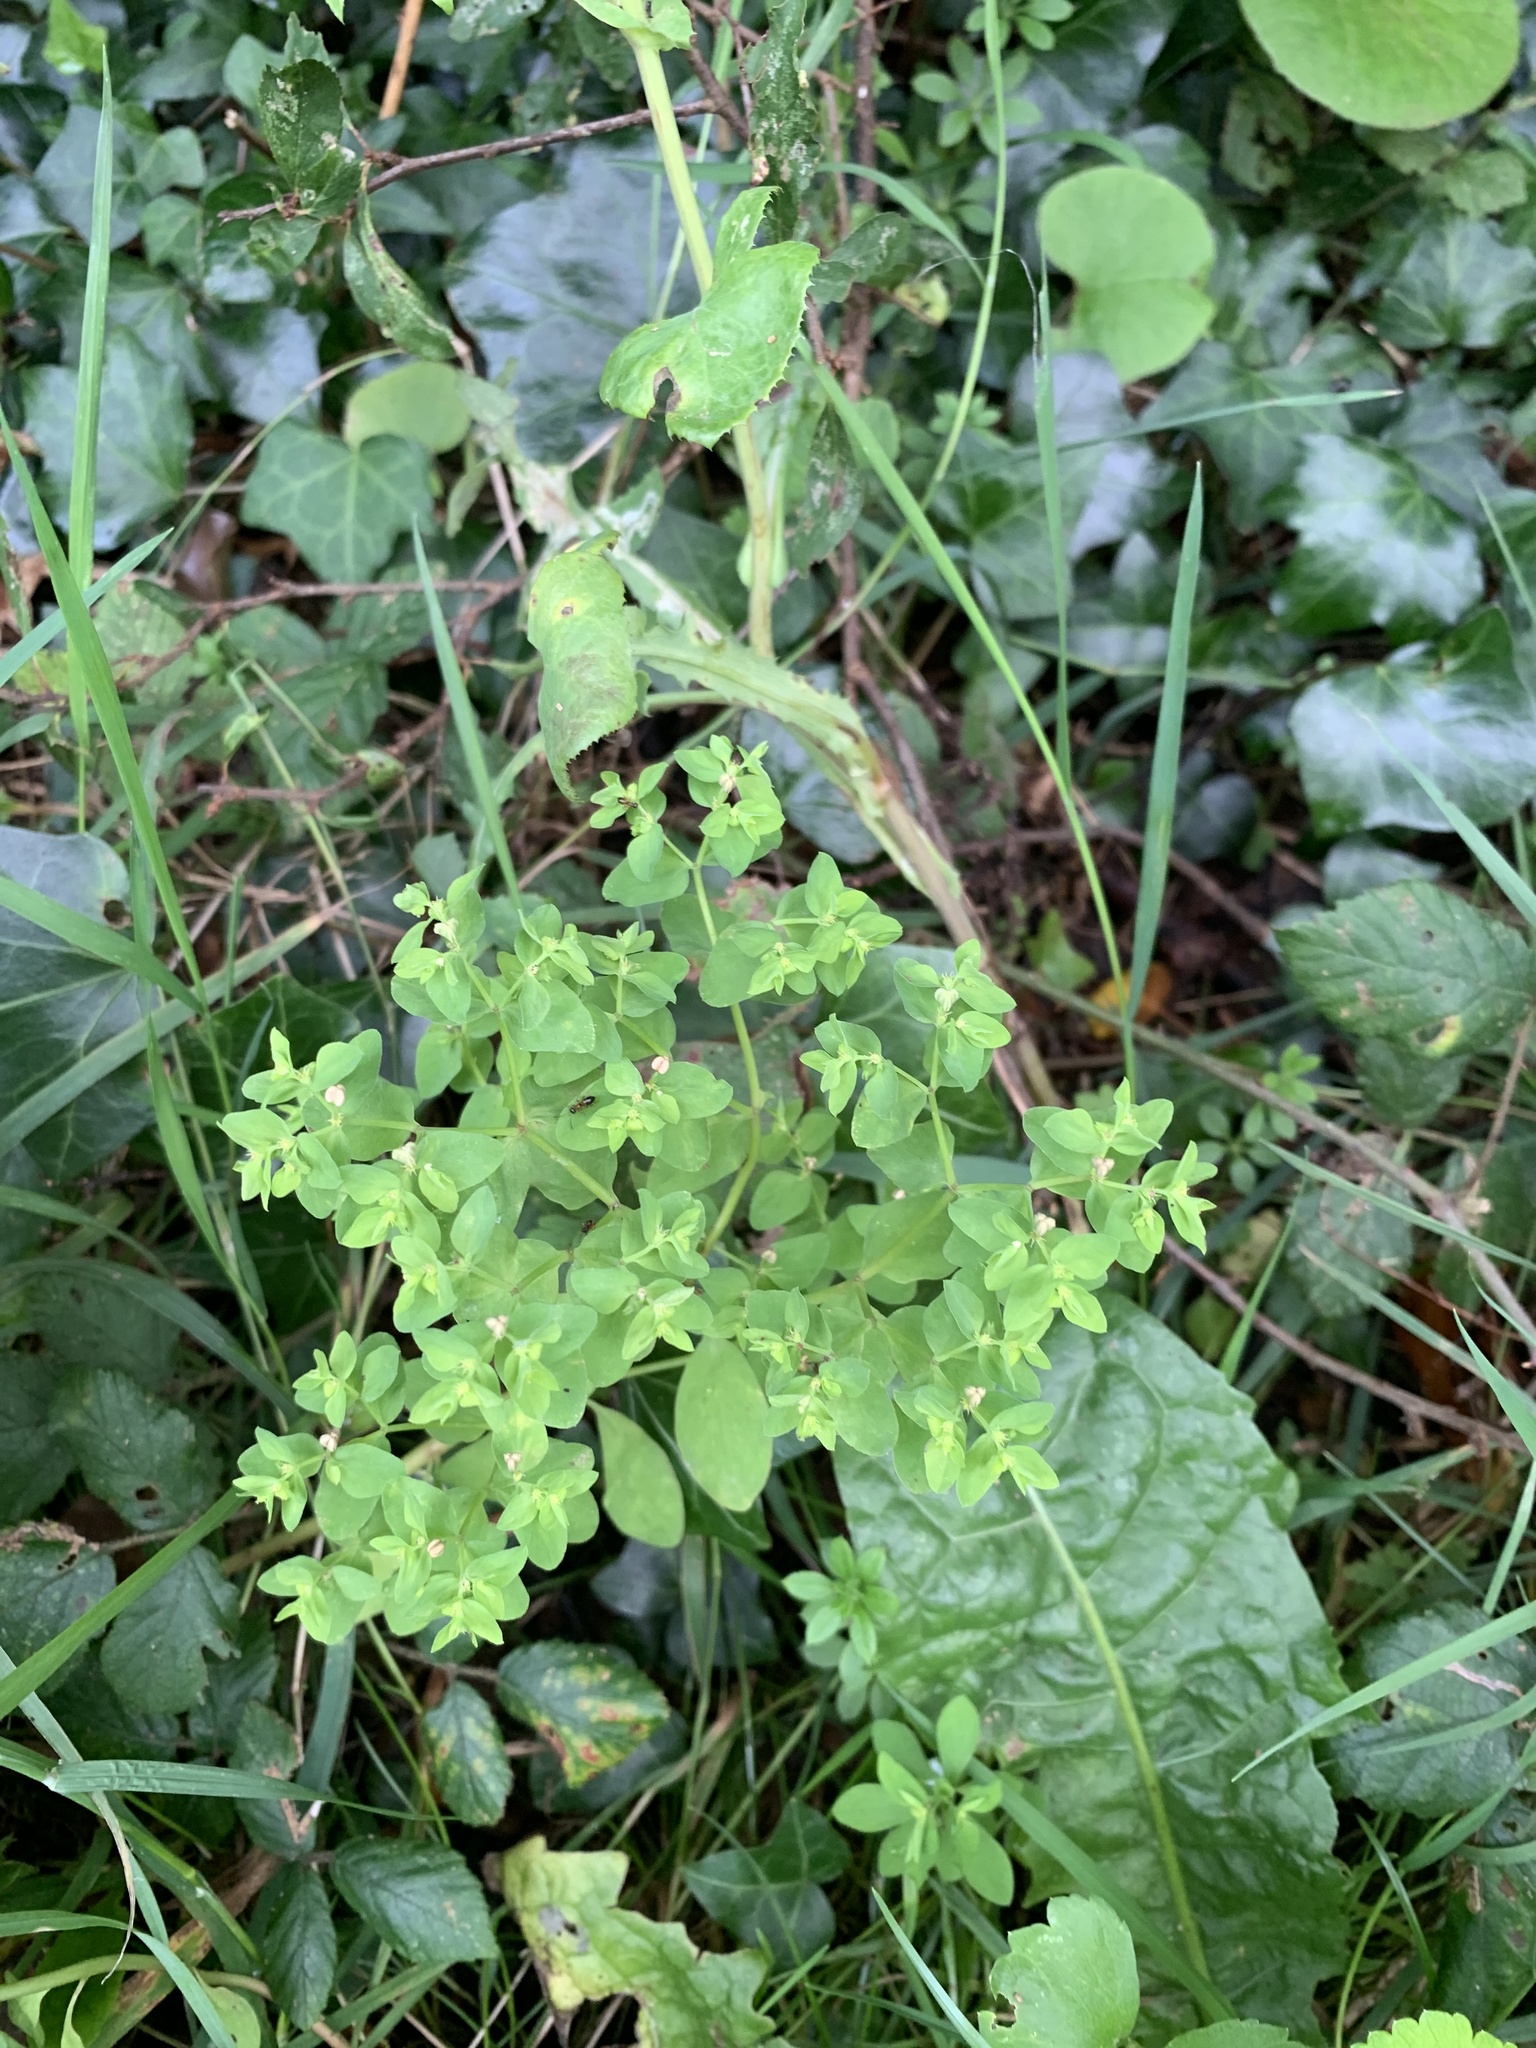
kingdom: Plantae
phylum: Tracheophyta
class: Magnoliopsida
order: Malpighiales
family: Euphorbiaceae
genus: Euphorbia
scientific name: Euphorbia peplus
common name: Petty spurge
